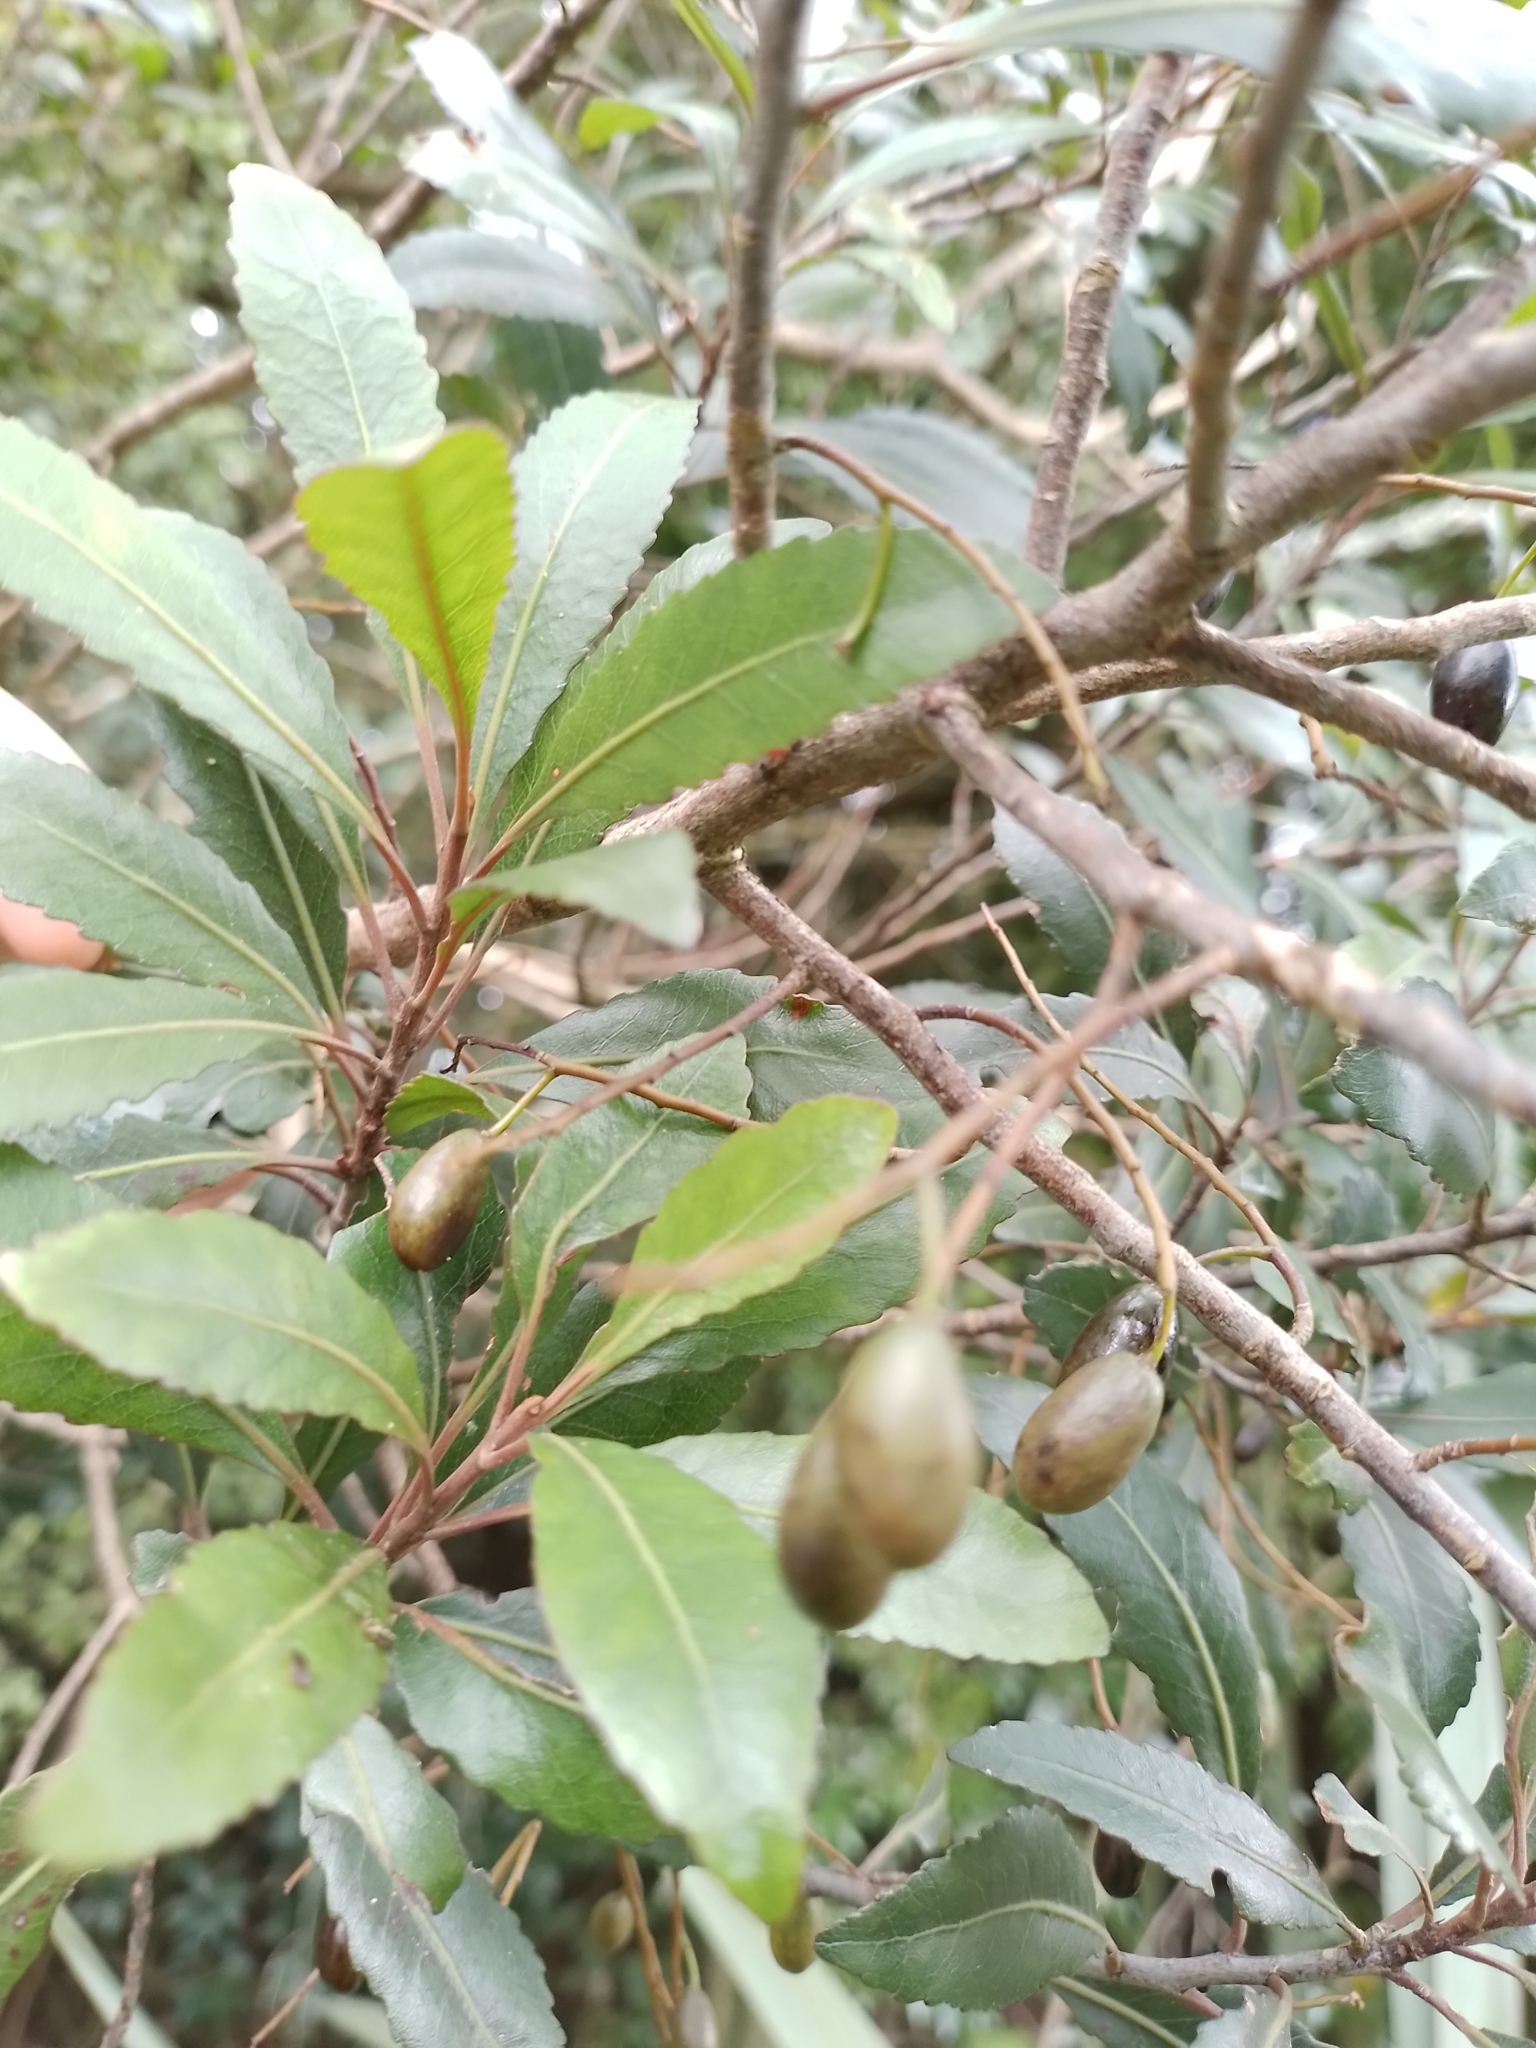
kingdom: Plantae
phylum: Tracheophyta
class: Magnoliopsida
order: Oxalidales
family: Elaeocarpaceae
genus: Elaeocarpus
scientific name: Elaeocarpus hookerianus
